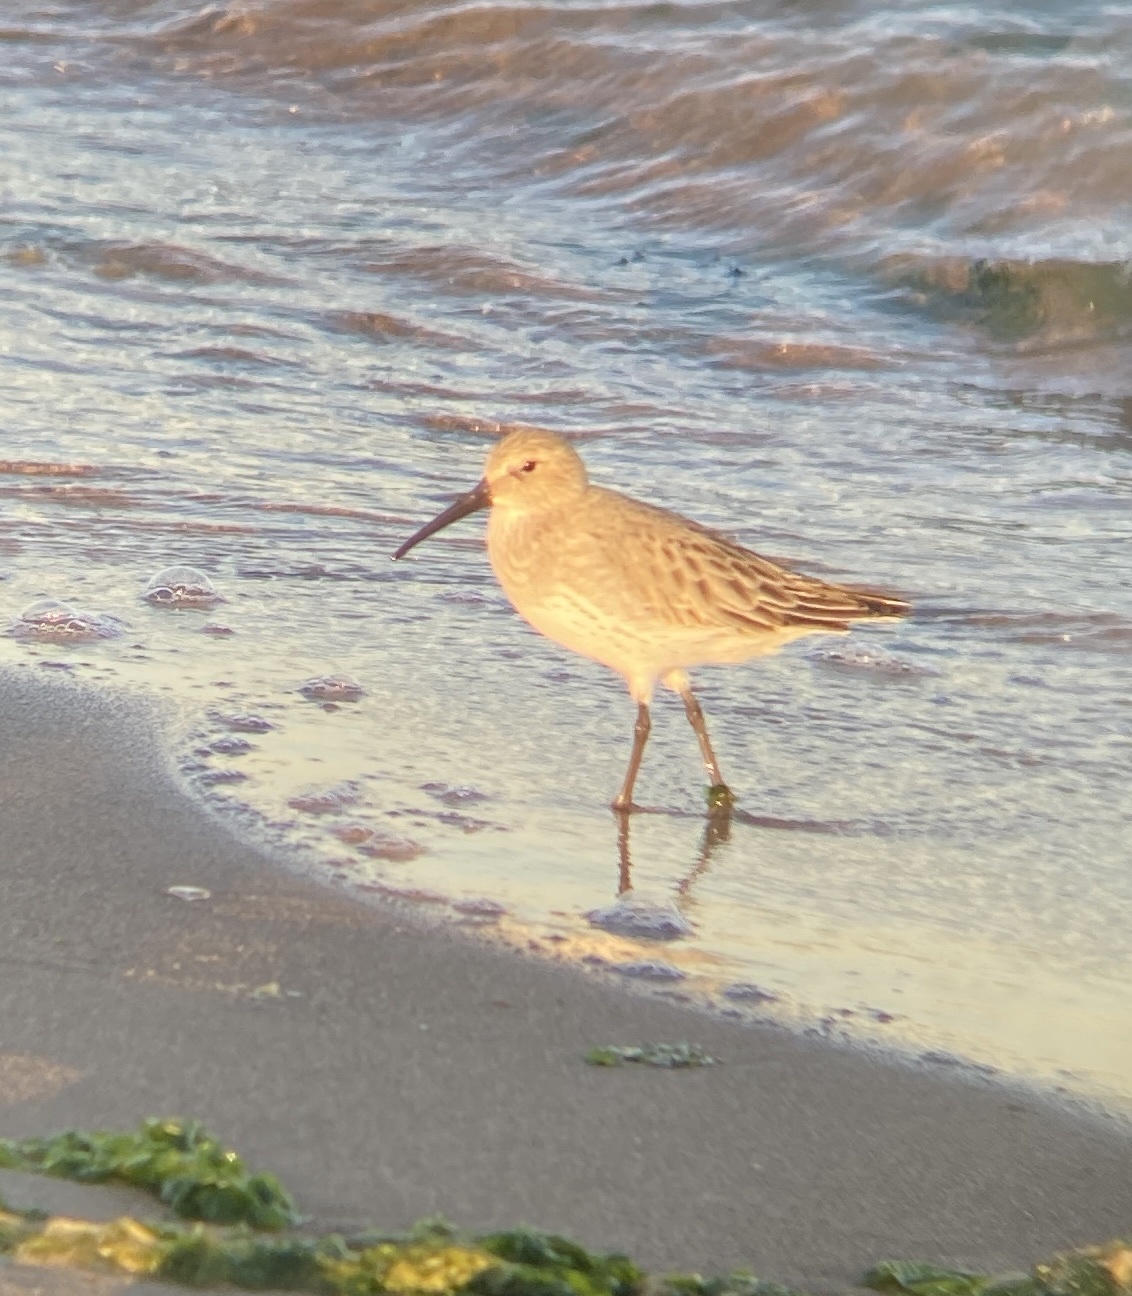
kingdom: Animalia
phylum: Chordata
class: Aves
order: Charadriiformes
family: Scolopacidae
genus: Calidris
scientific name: Calidris alpina
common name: Dunlin
